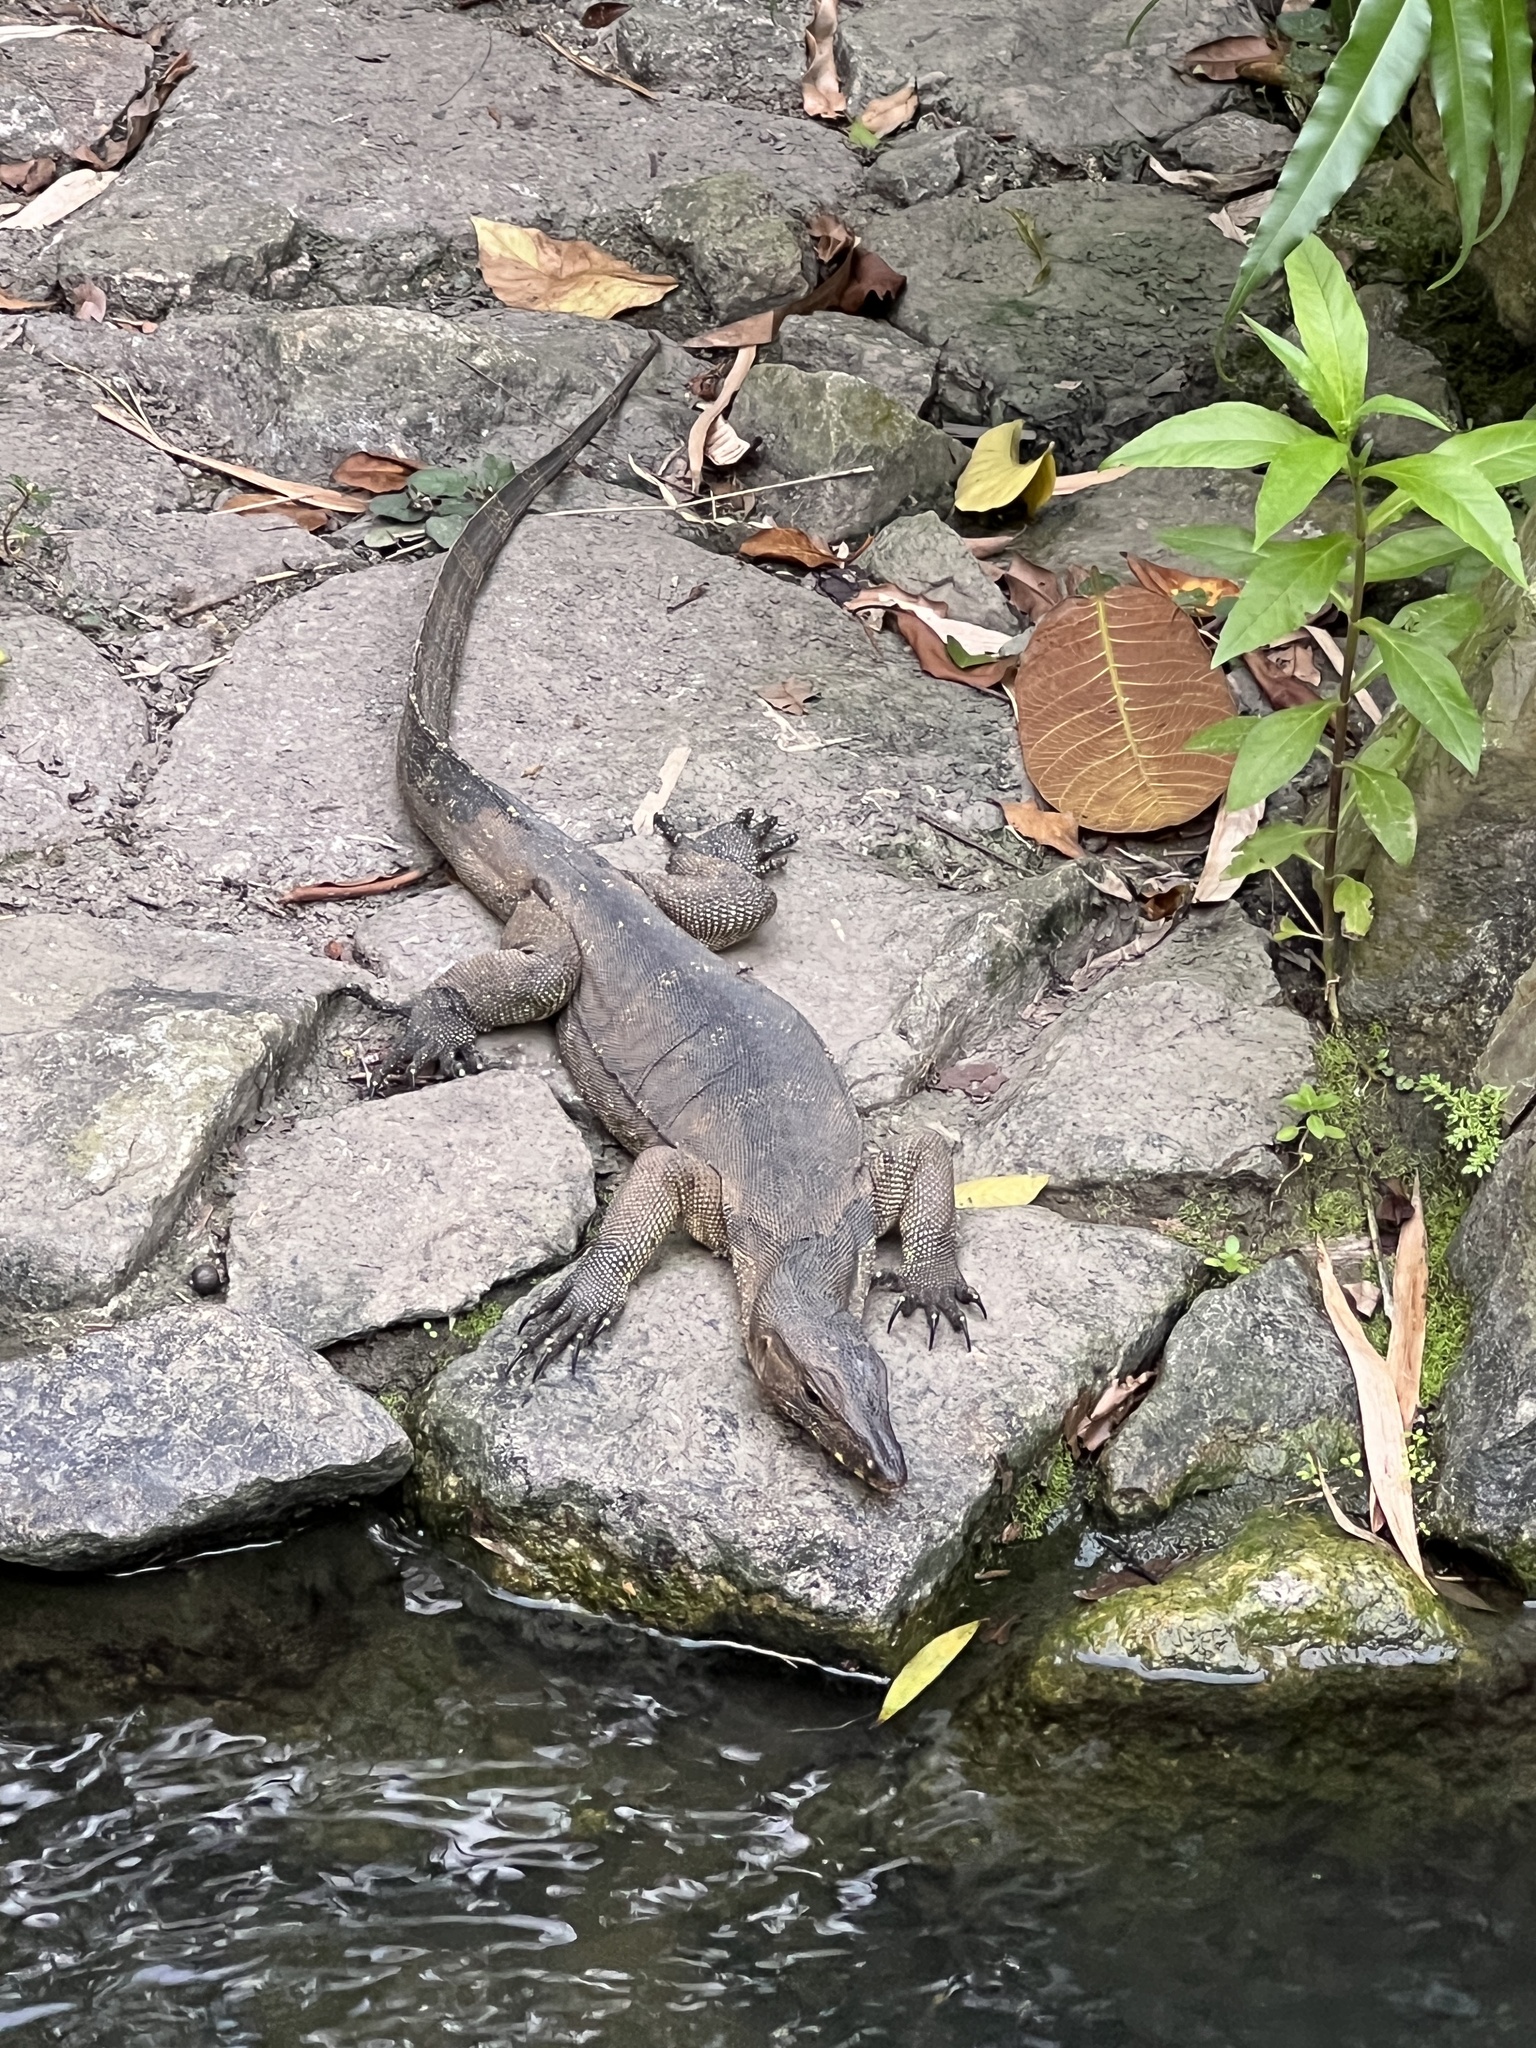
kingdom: Animalia
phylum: Chordata
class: Squamata
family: Varanidae
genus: Varanus
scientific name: Varanus salvator
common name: Common water monitor
